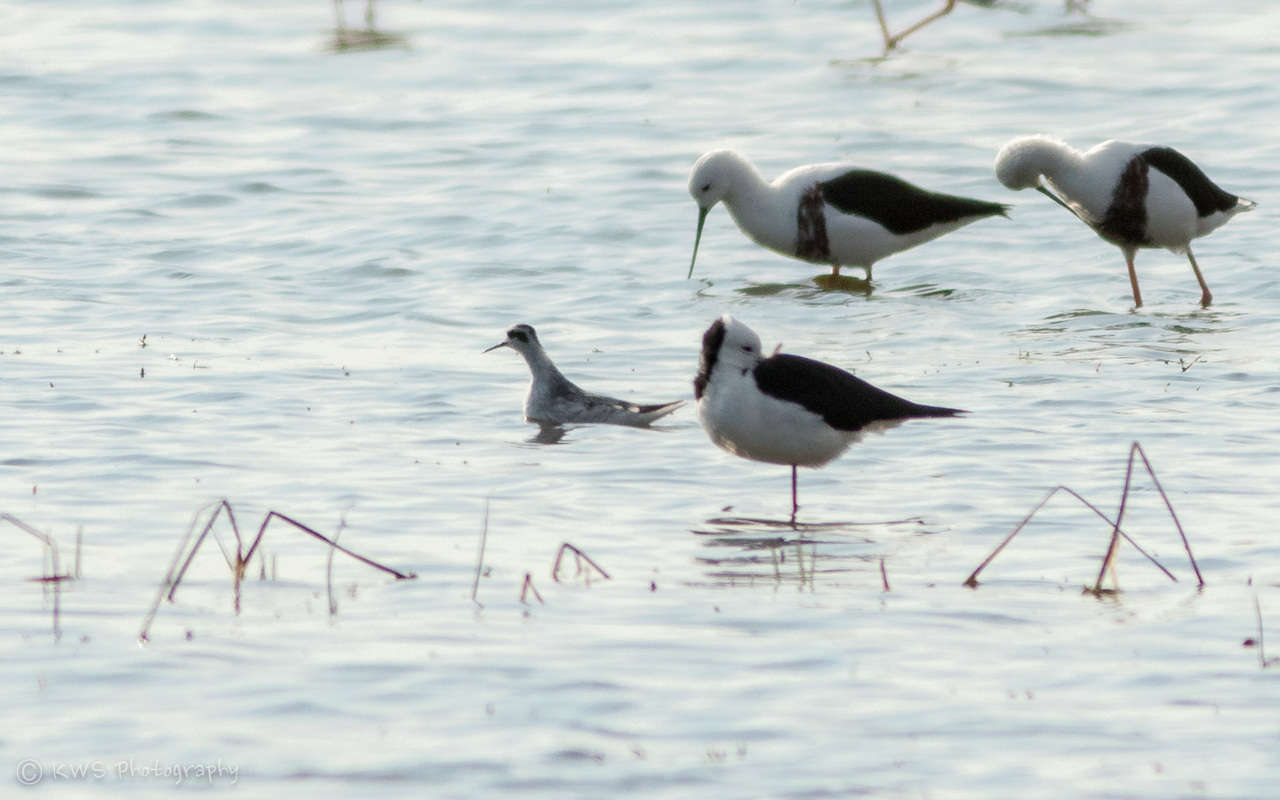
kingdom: Animalia
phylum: Chordata
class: Aves
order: Charadriiformes
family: Scolopacidae
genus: Phalaropus
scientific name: Phalaropus lobatus
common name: Red-necked phalarope
